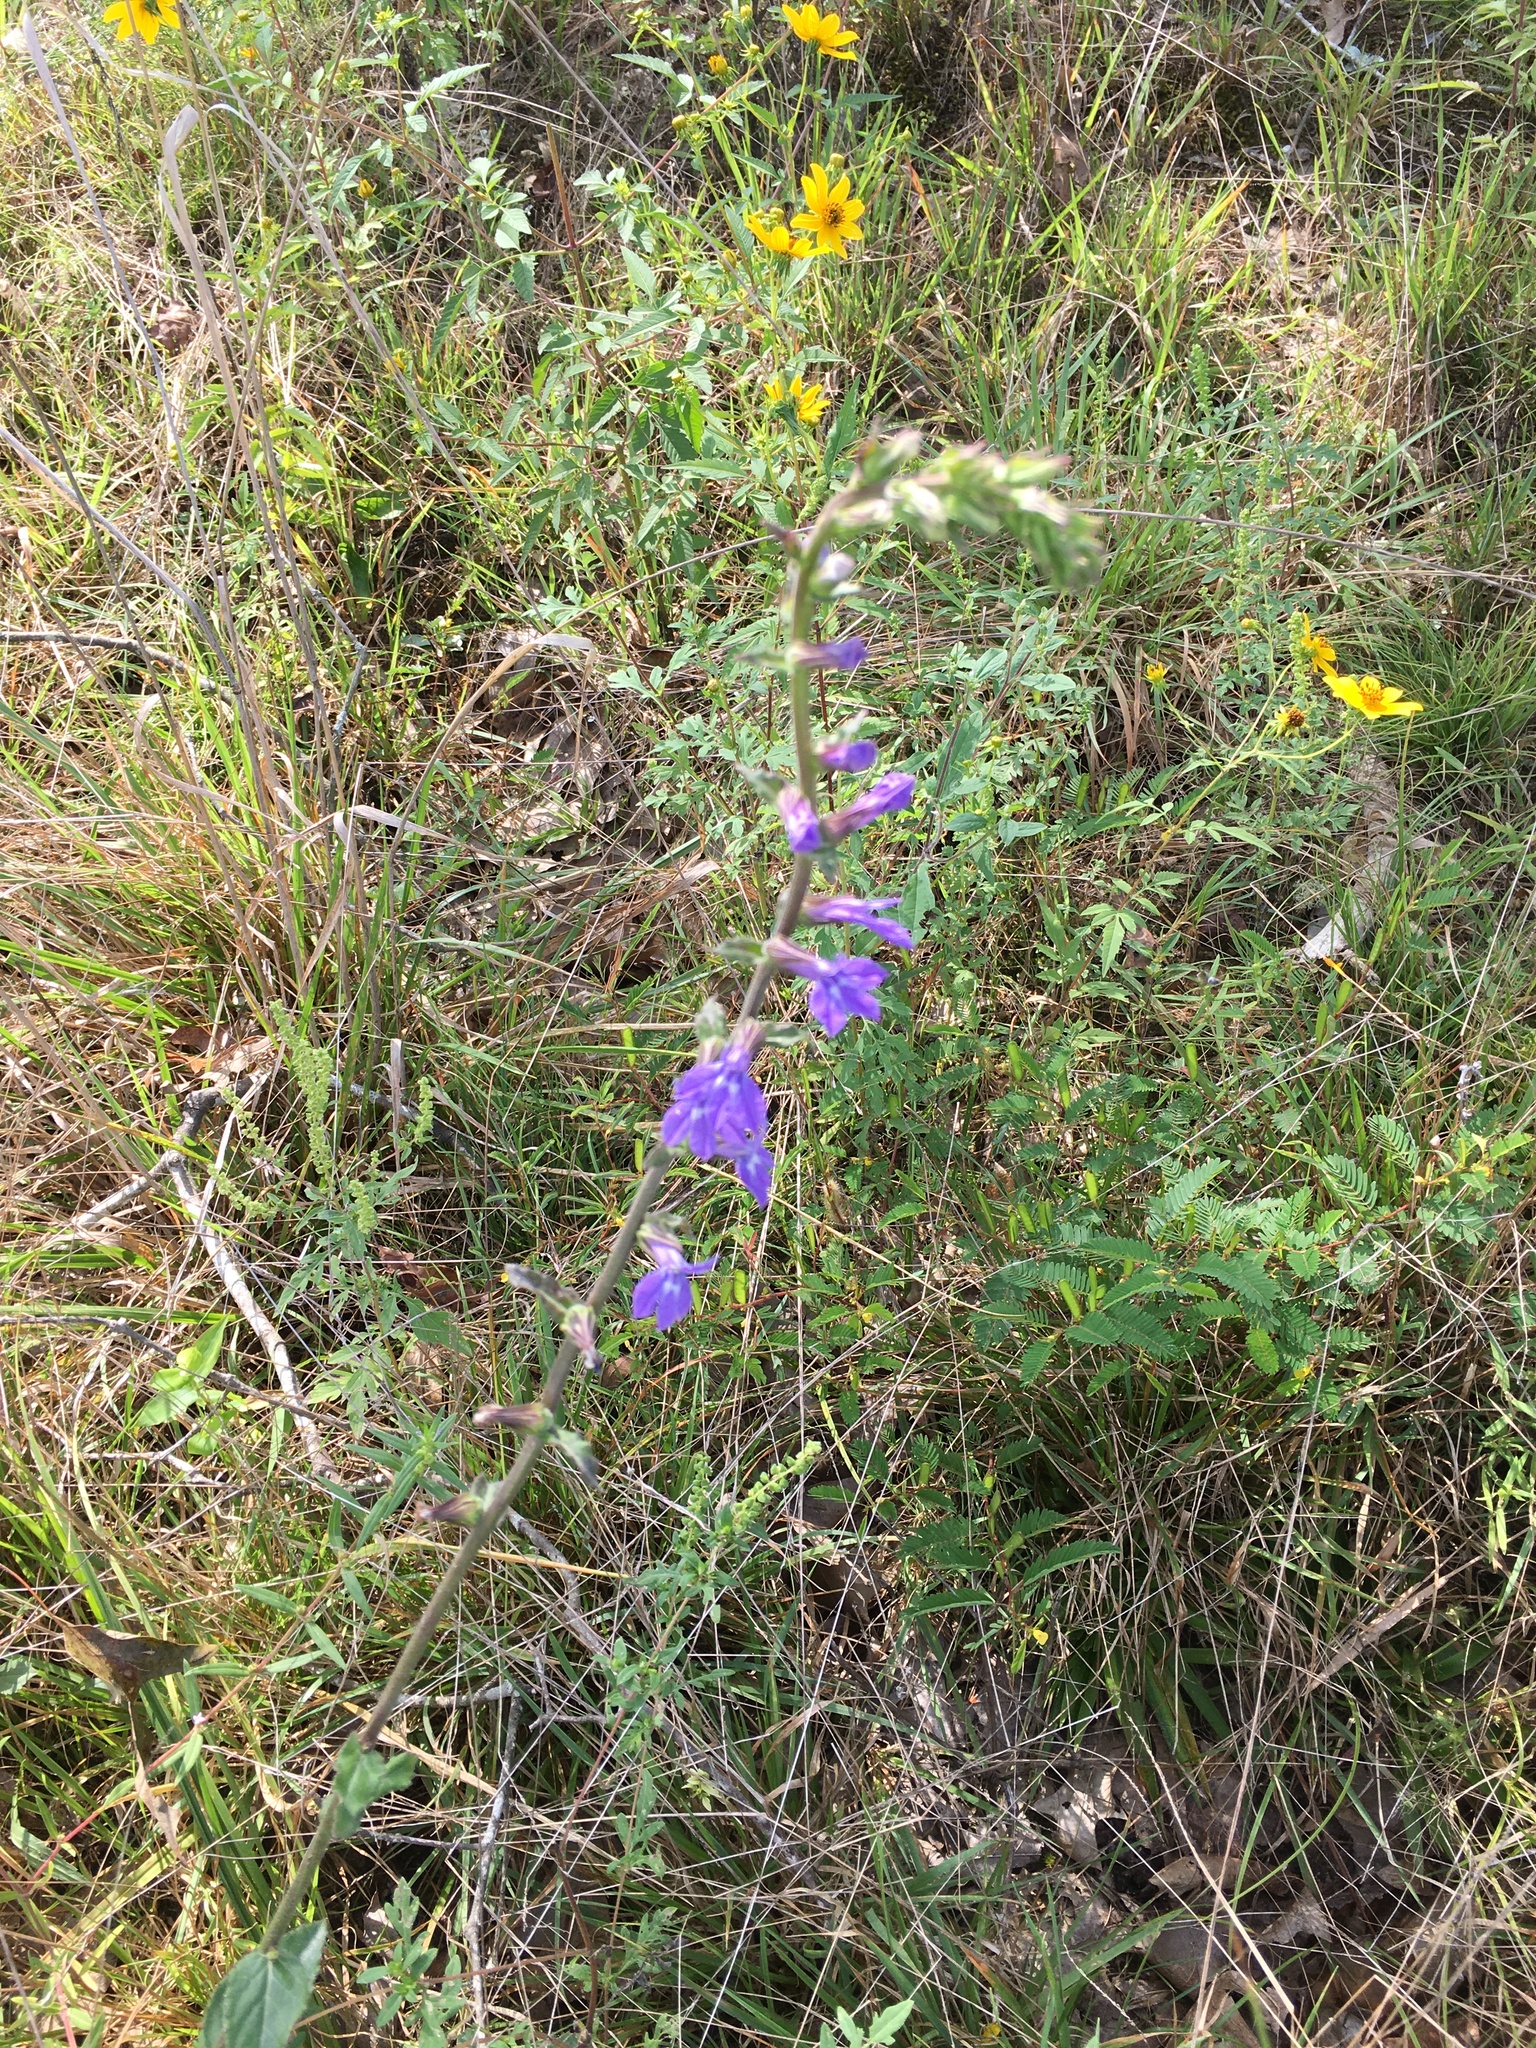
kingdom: Plantae
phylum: Tracheophyta
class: Magnoliopsida
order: Asterales
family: Campanulaceae
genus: Lobelia
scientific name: Lobelia puberula
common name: Purple dewdrop
